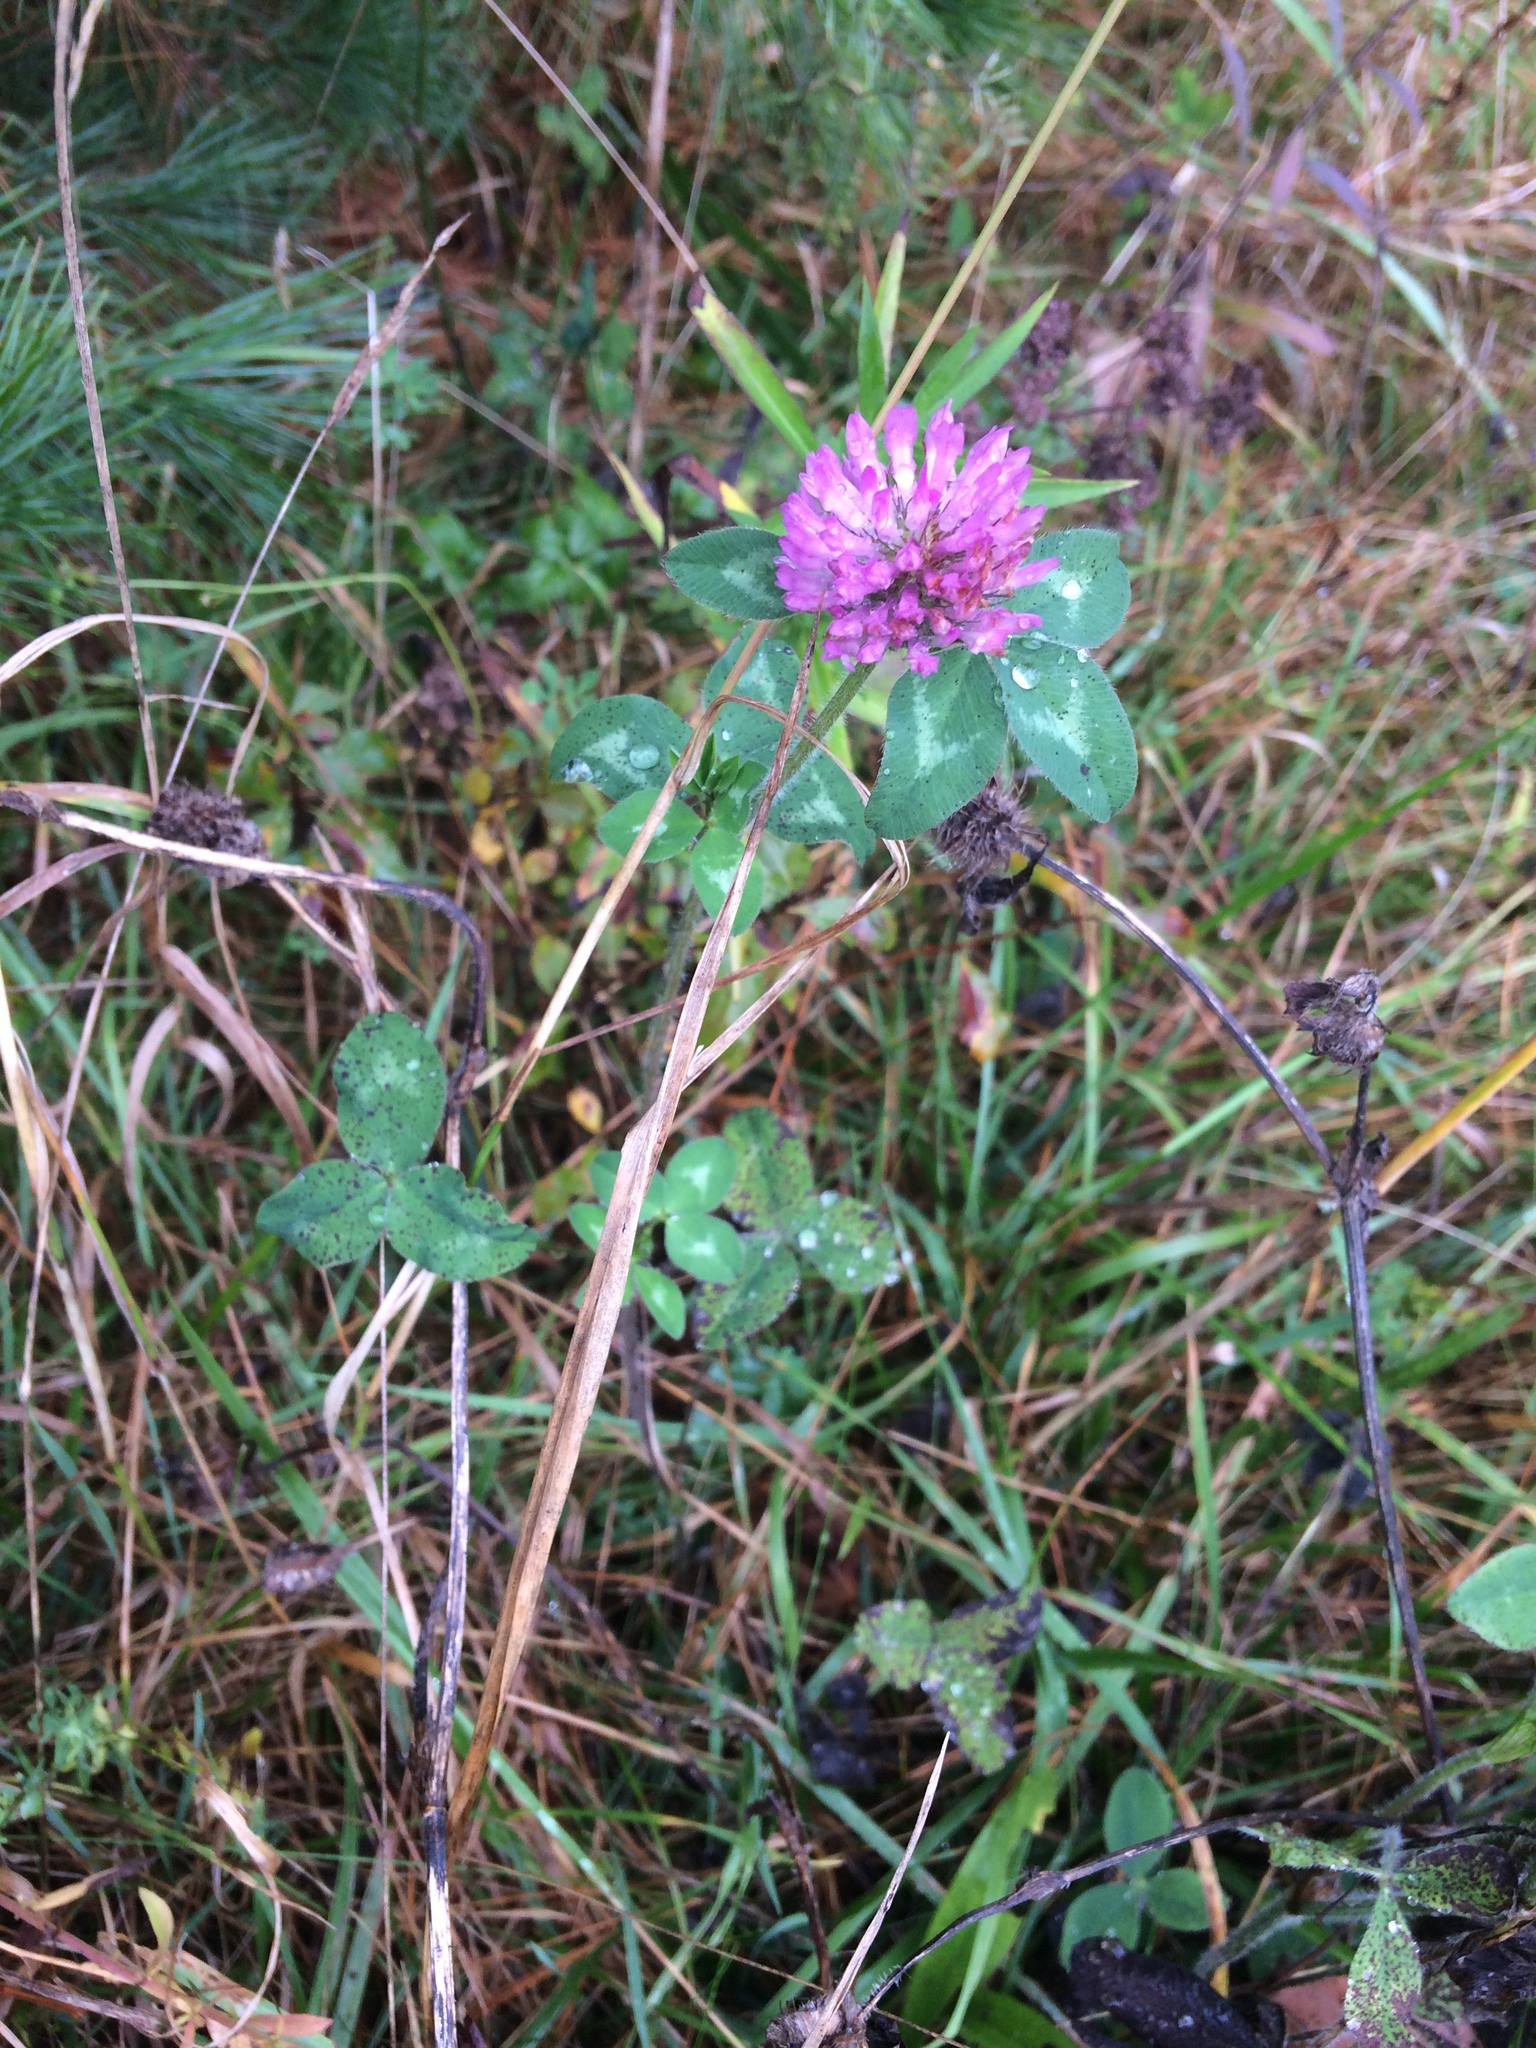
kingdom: Plantae
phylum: Tracheophyta
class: Magnoliopsida
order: Fabales
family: Fabaceae
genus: Trifolium
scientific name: Trifolium pratense
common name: Red clover
